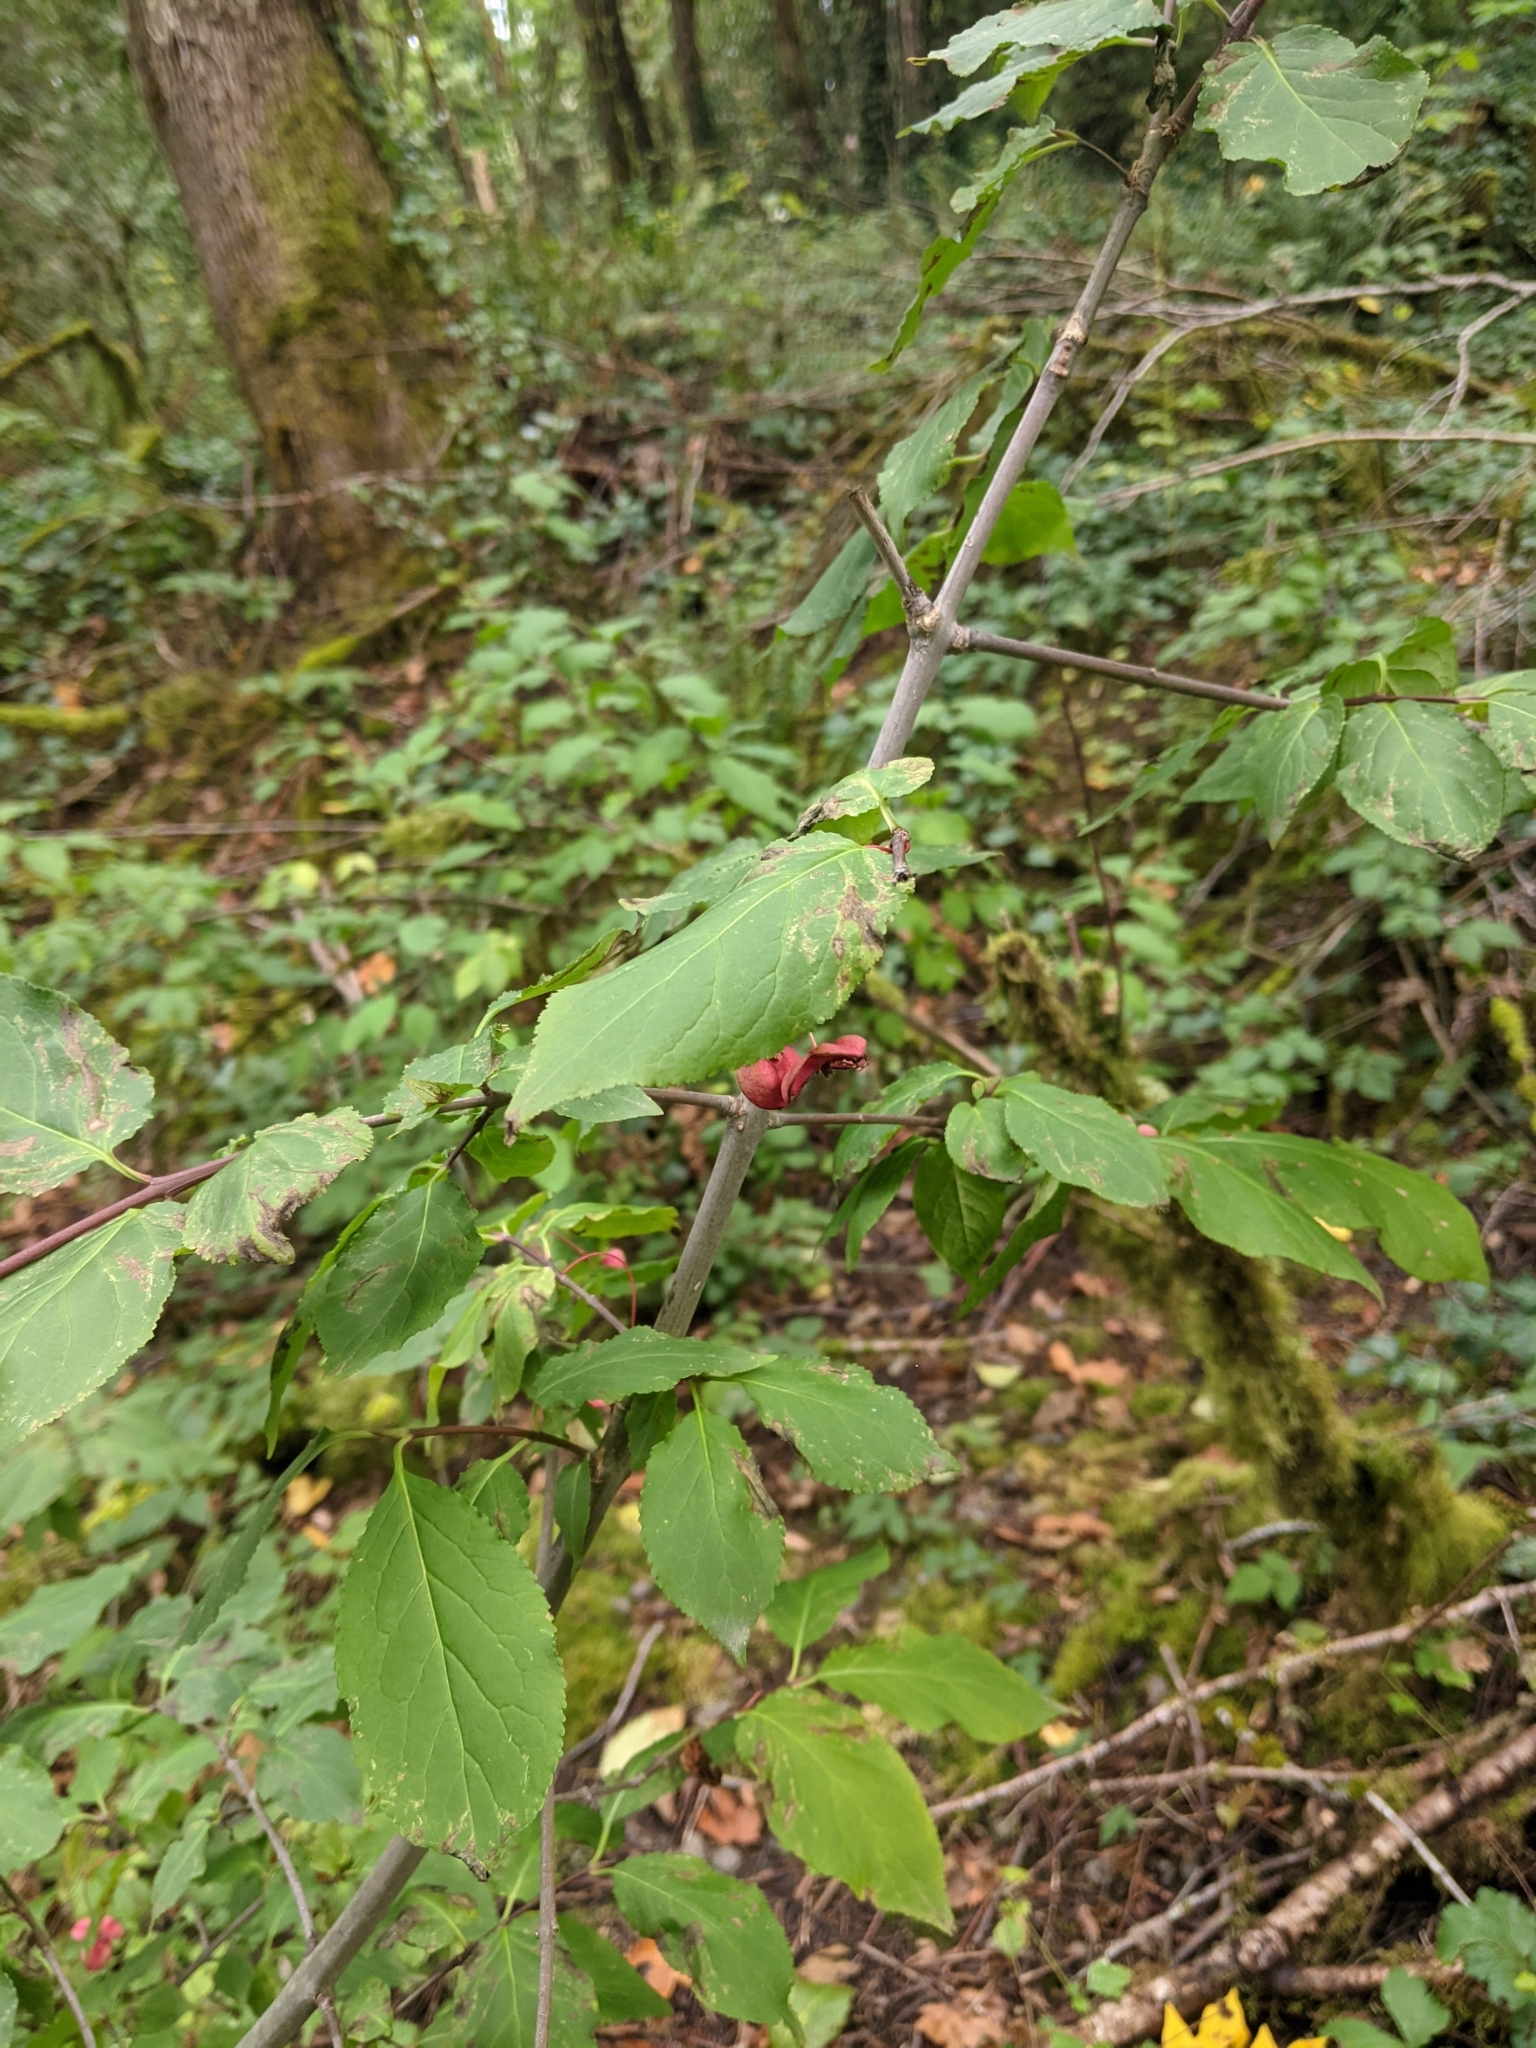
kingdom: Plantae
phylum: Tracheophyta
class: Magnoliopsida
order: Celastrales
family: Celastraceae
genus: Euonymus
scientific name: Euonymus europaeus
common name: Spindle
